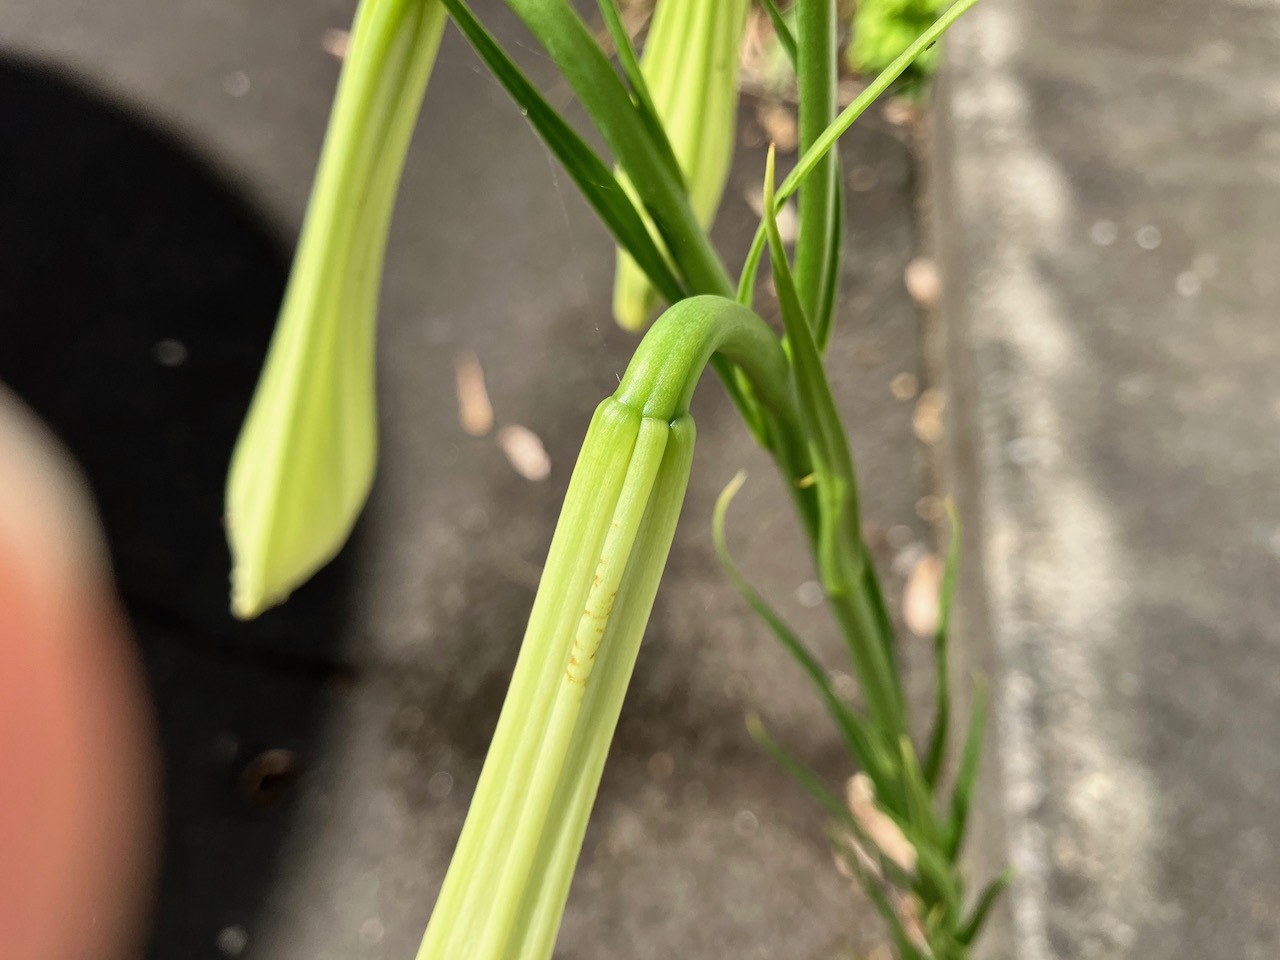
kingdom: Plantae
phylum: Tracheophyta
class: Liliopsida
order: Liliales
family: Liliaceae
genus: Lilium
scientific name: Lilium
